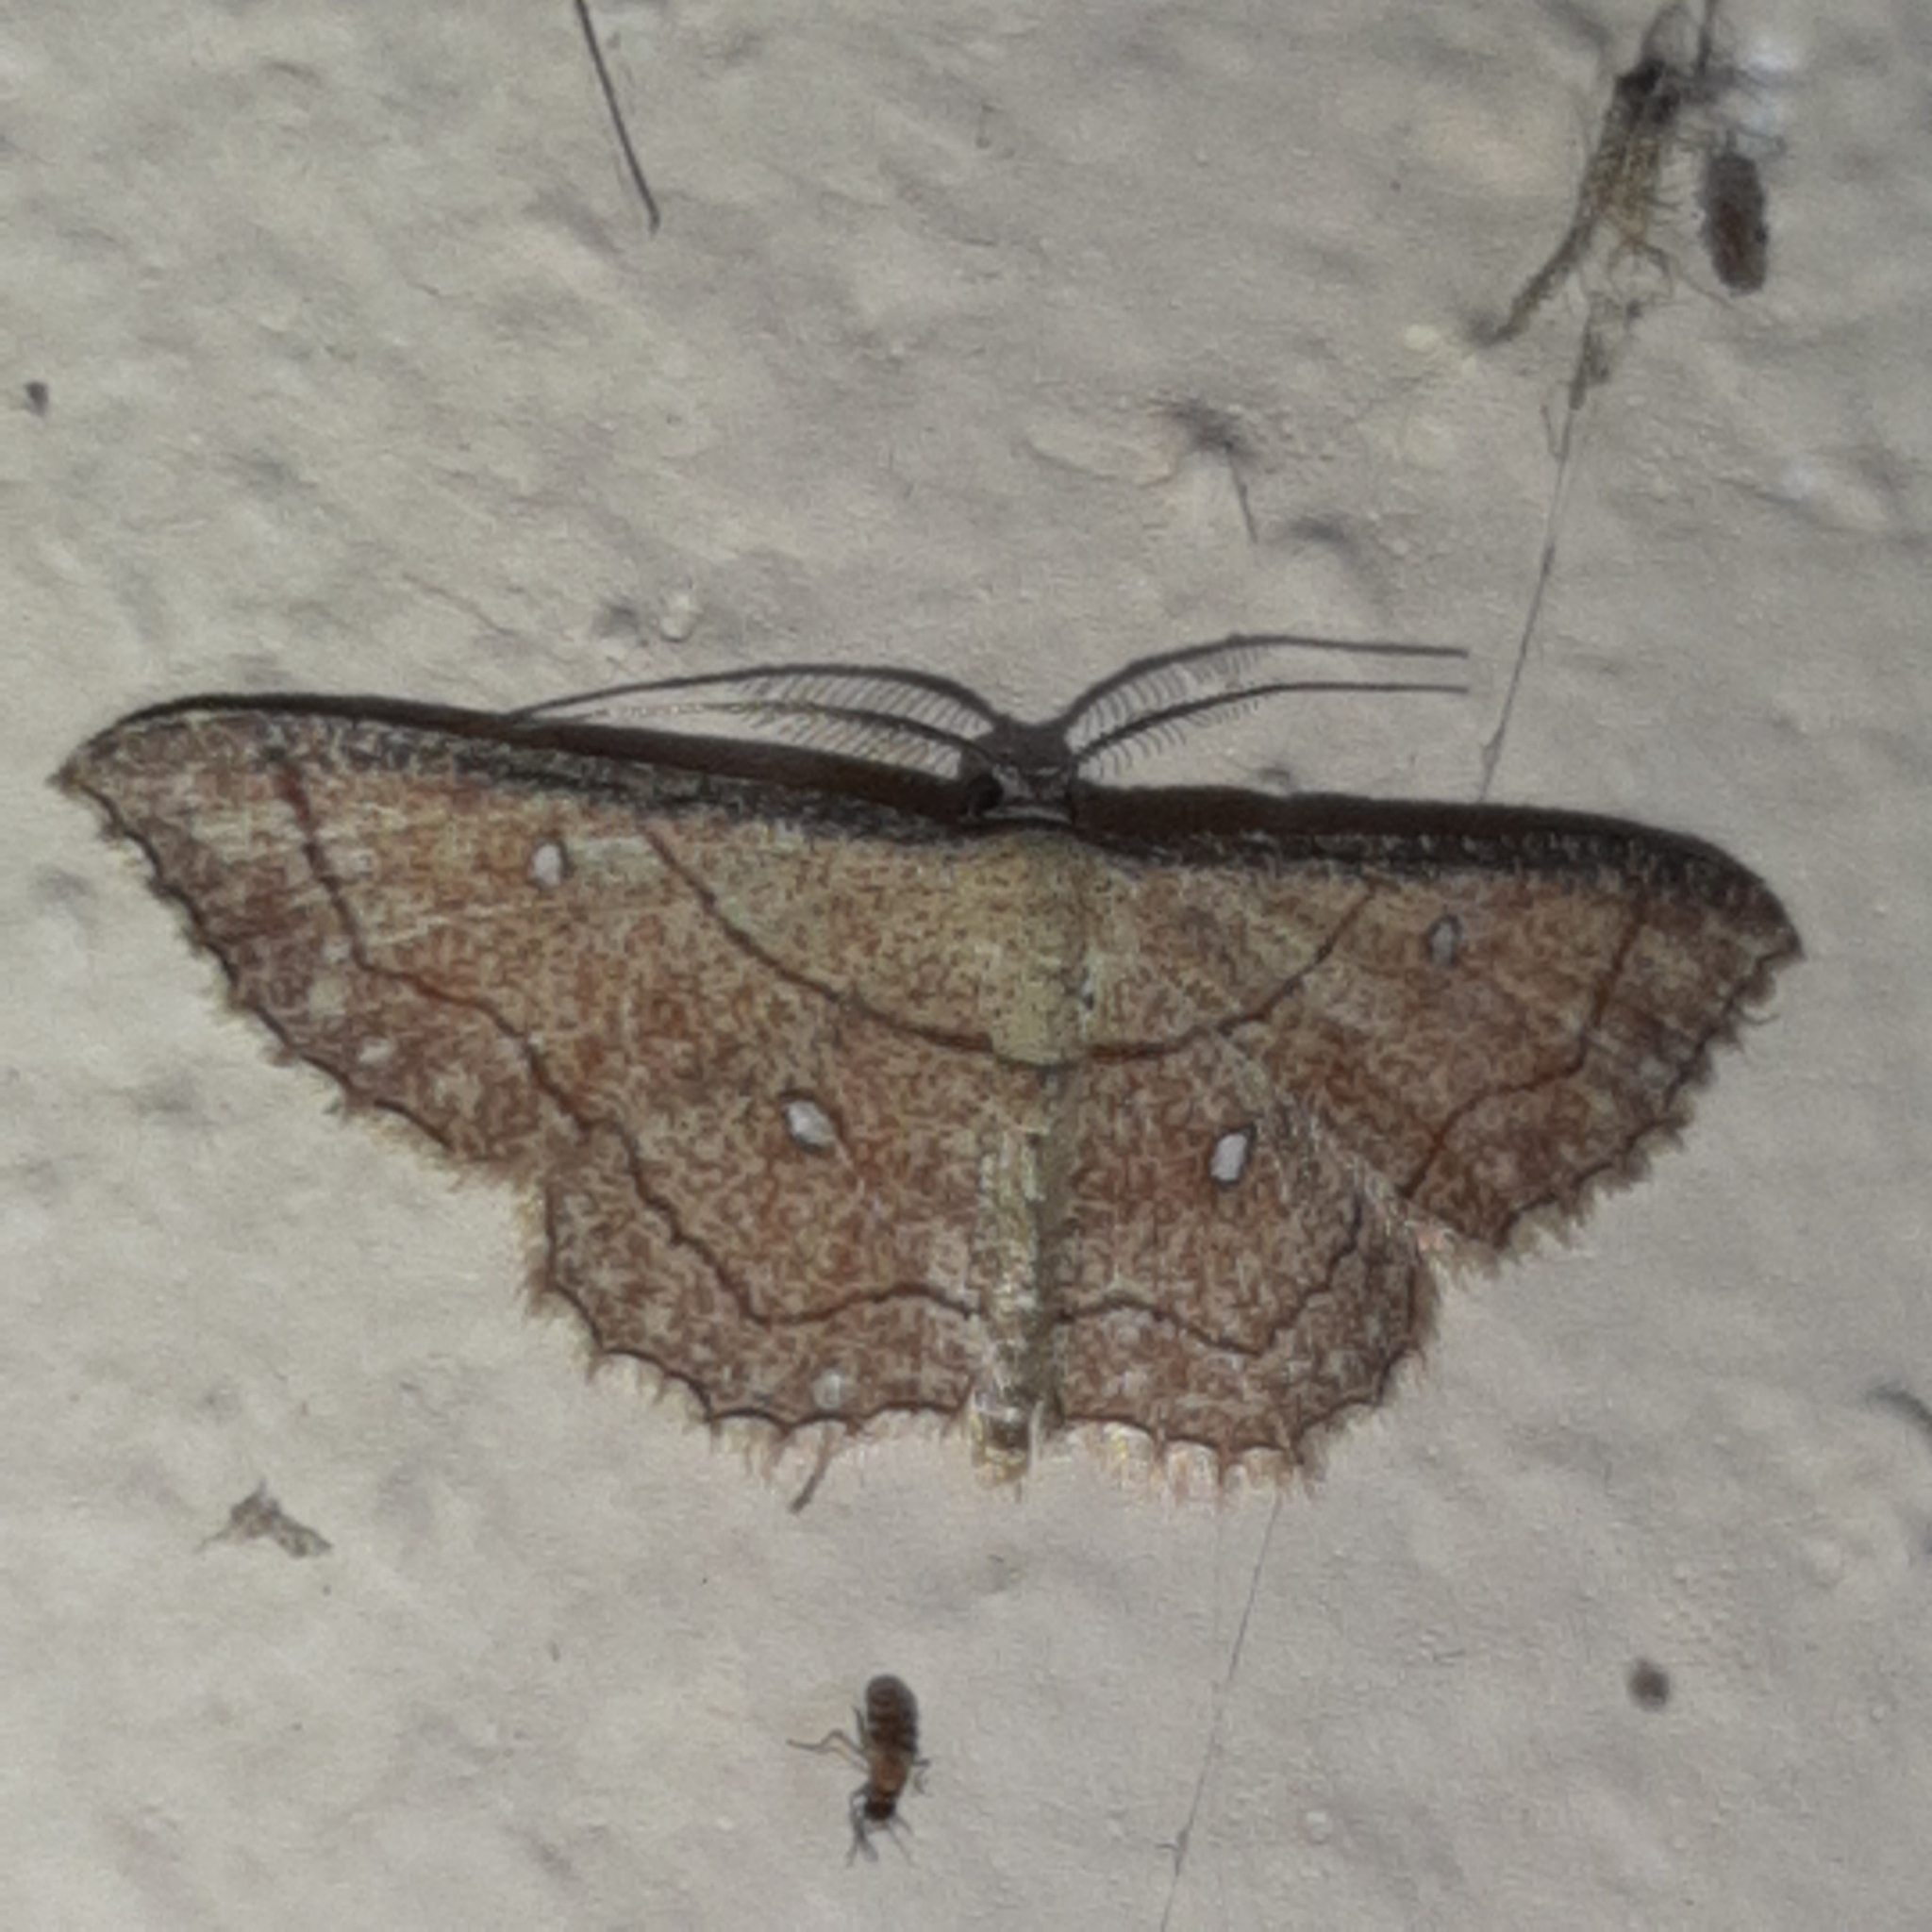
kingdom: Animalia
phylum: Arthropoda
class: Insecta
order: Lepidoptera
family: Geometridae
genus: Cyclophora
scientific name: Cyclophora coecaria
